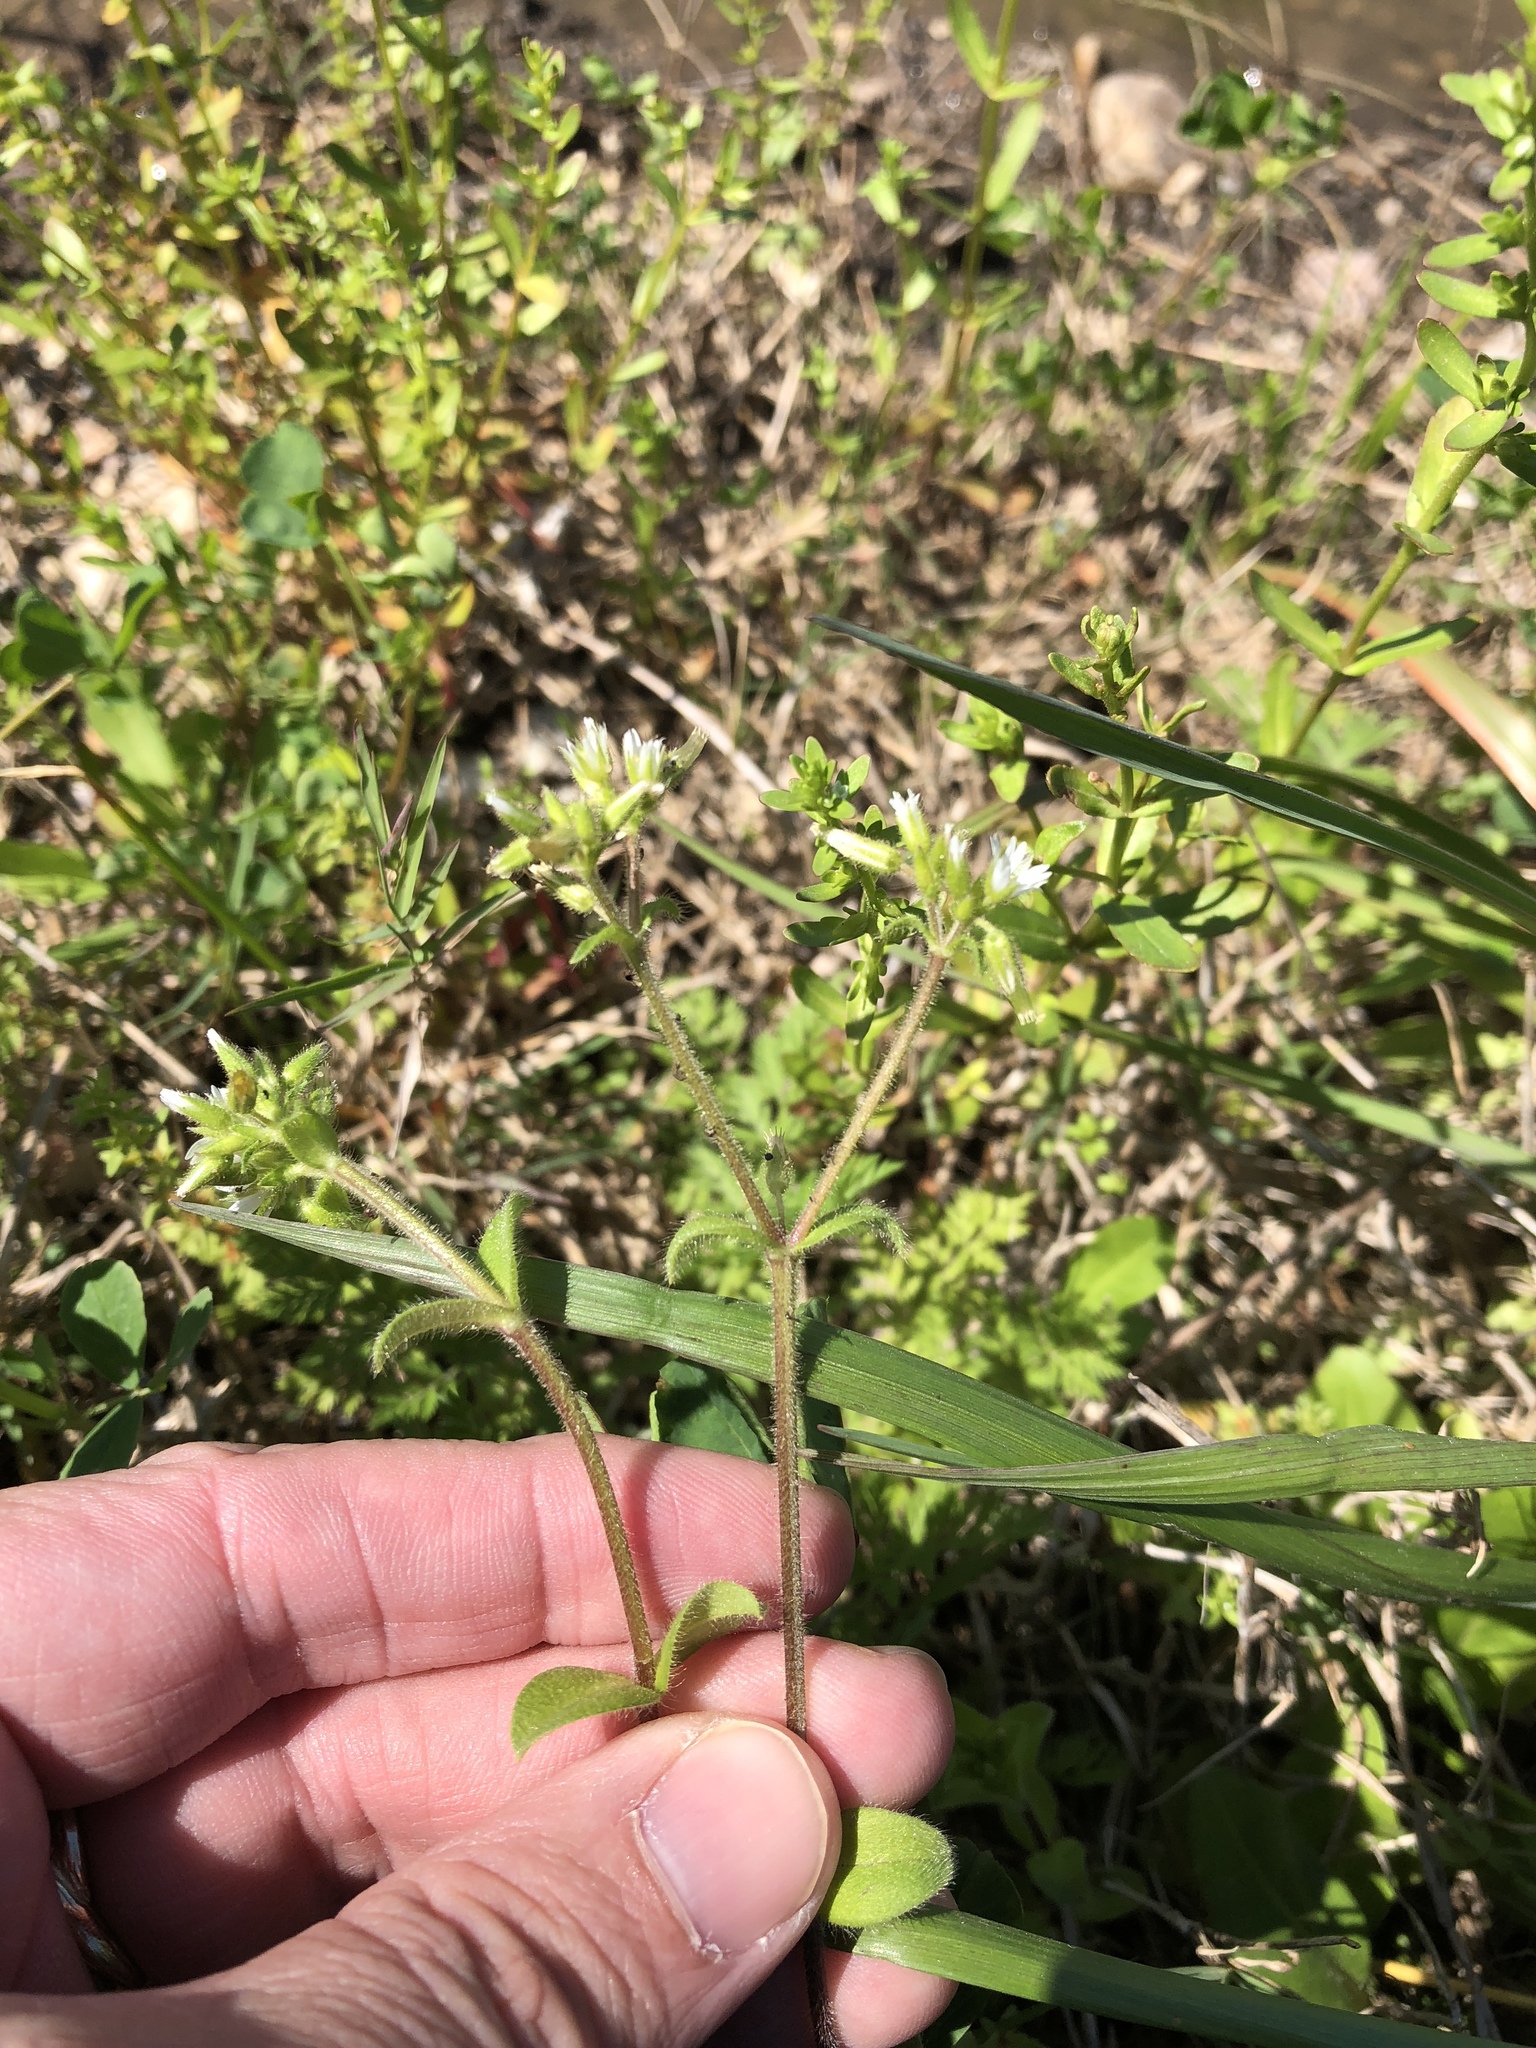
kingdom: Plantae
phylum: Tracheophyta
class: Magnoliopsida
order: Caryophyllales
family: Caryophyllaceae
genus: Cerastium
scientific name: Cerastium glomeratum
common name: Sticky chickweed
